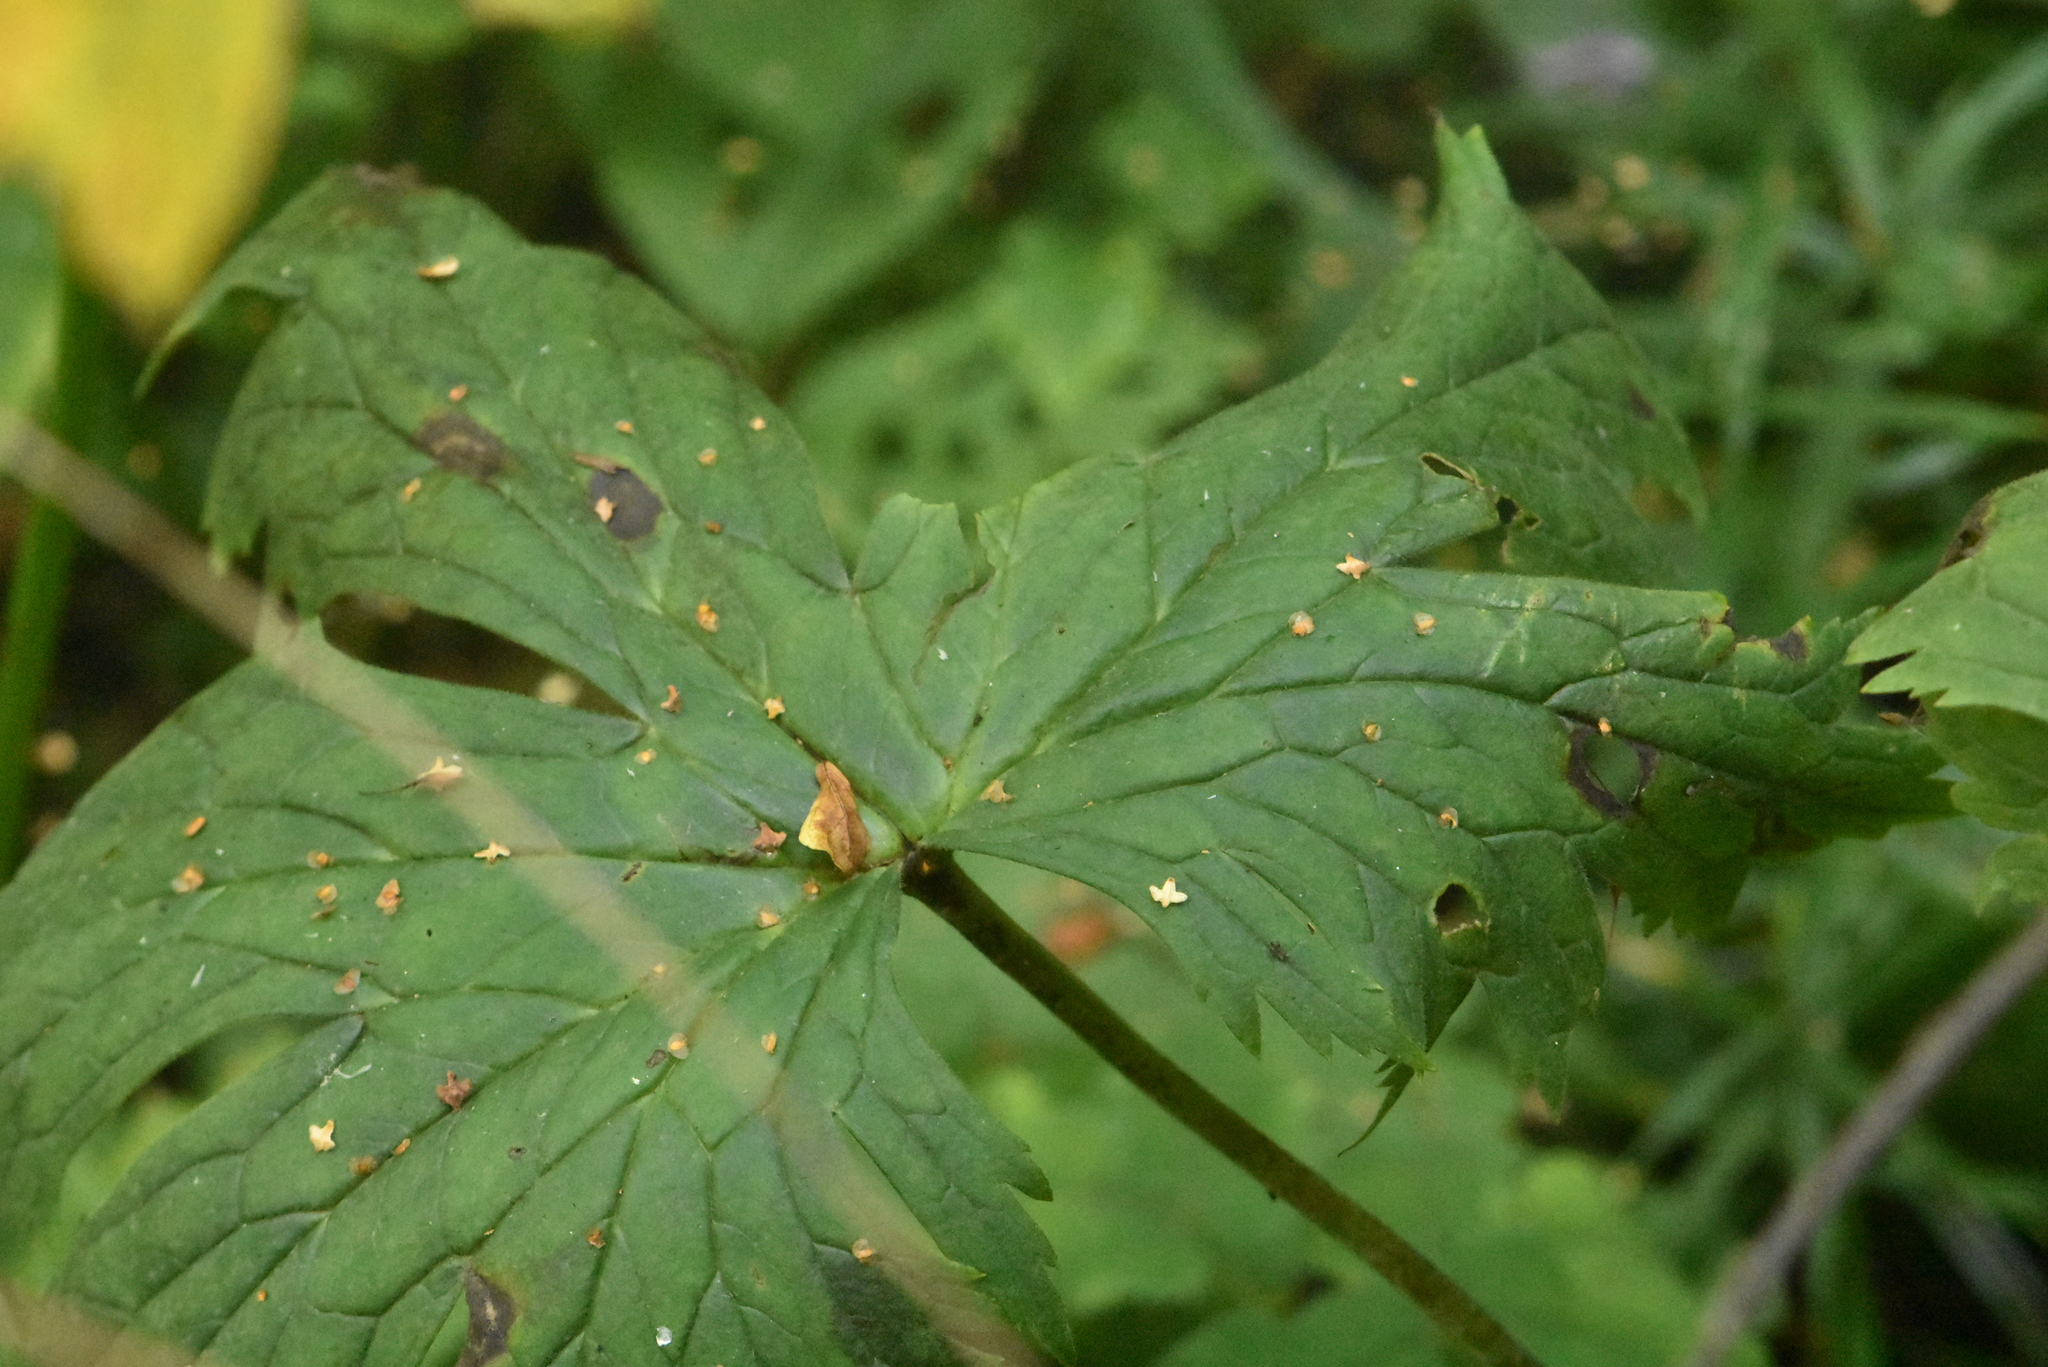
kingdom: Plantae
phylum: Tracheophyta
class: Magnoliopsida
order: Ranunculales
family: Ranunculaceae
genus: Aconitum
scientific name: Aconitum septentrionale
